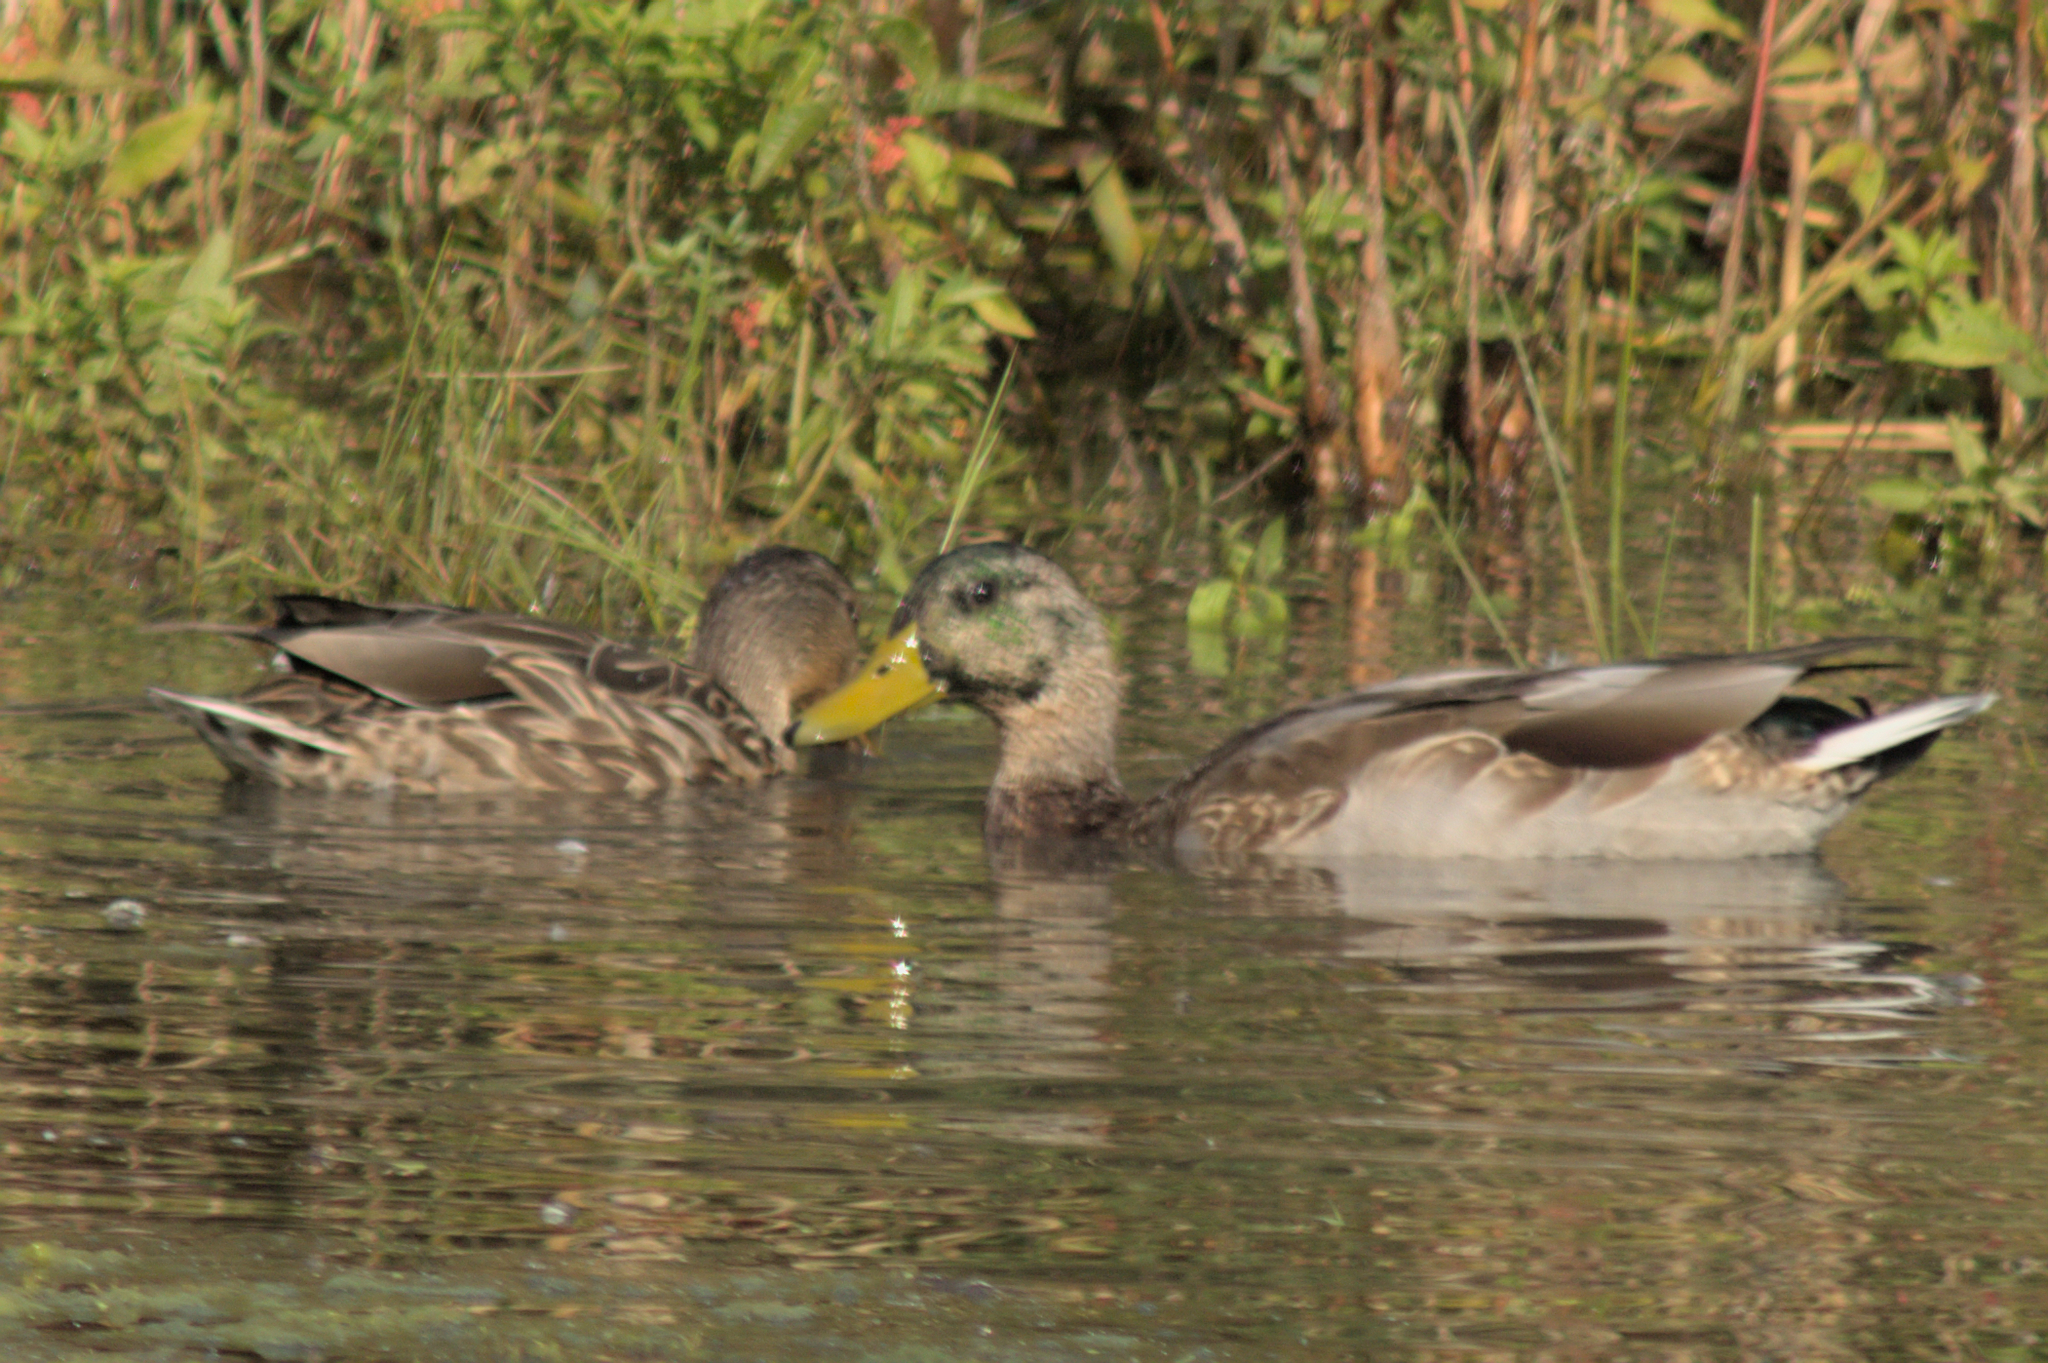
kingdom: Animalia
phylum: Chordata
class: Aves
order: Anseriformes
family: Anatidae
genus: Anas
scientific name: Anas platyrhynchos
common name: Mallard
